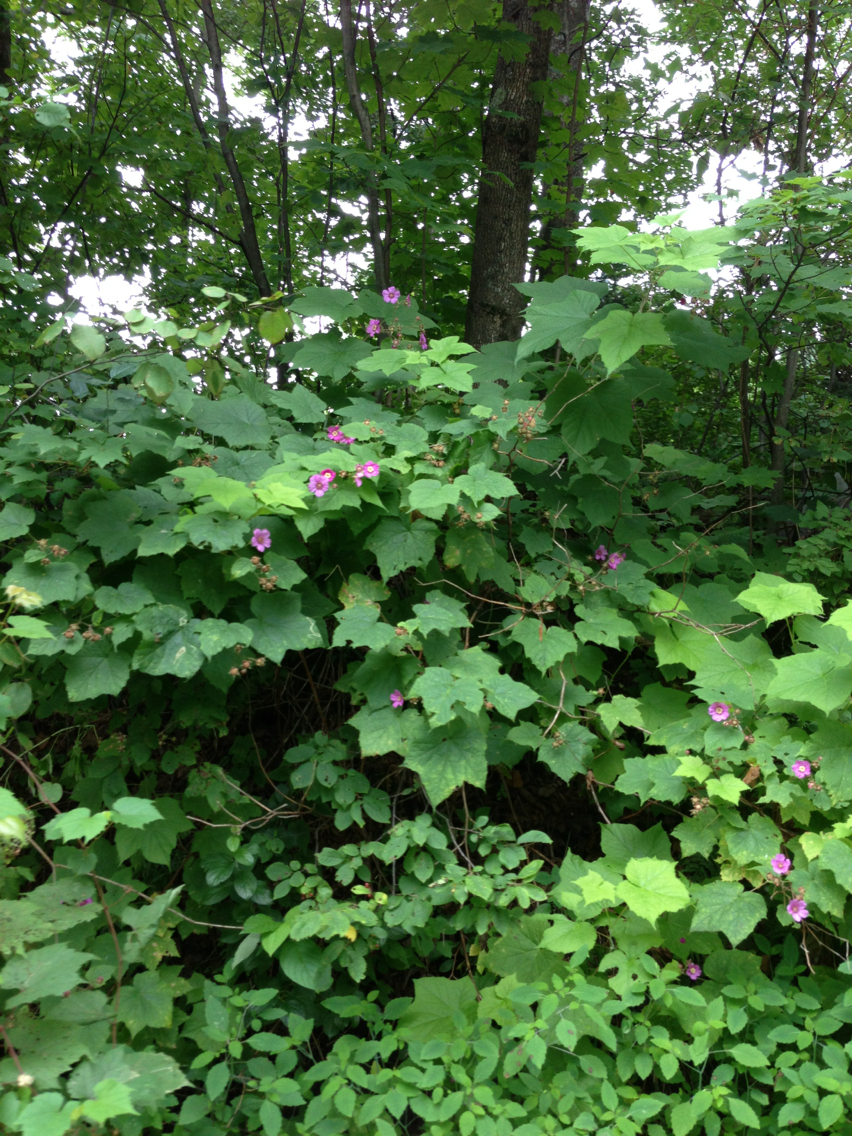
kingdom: Plantae
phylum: Tracheophyta
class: Magnoliopsida
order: Rosales
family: Rosaceae
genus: Rubus
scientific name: Rubus odoratus
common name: Purple-flowered raspberry
